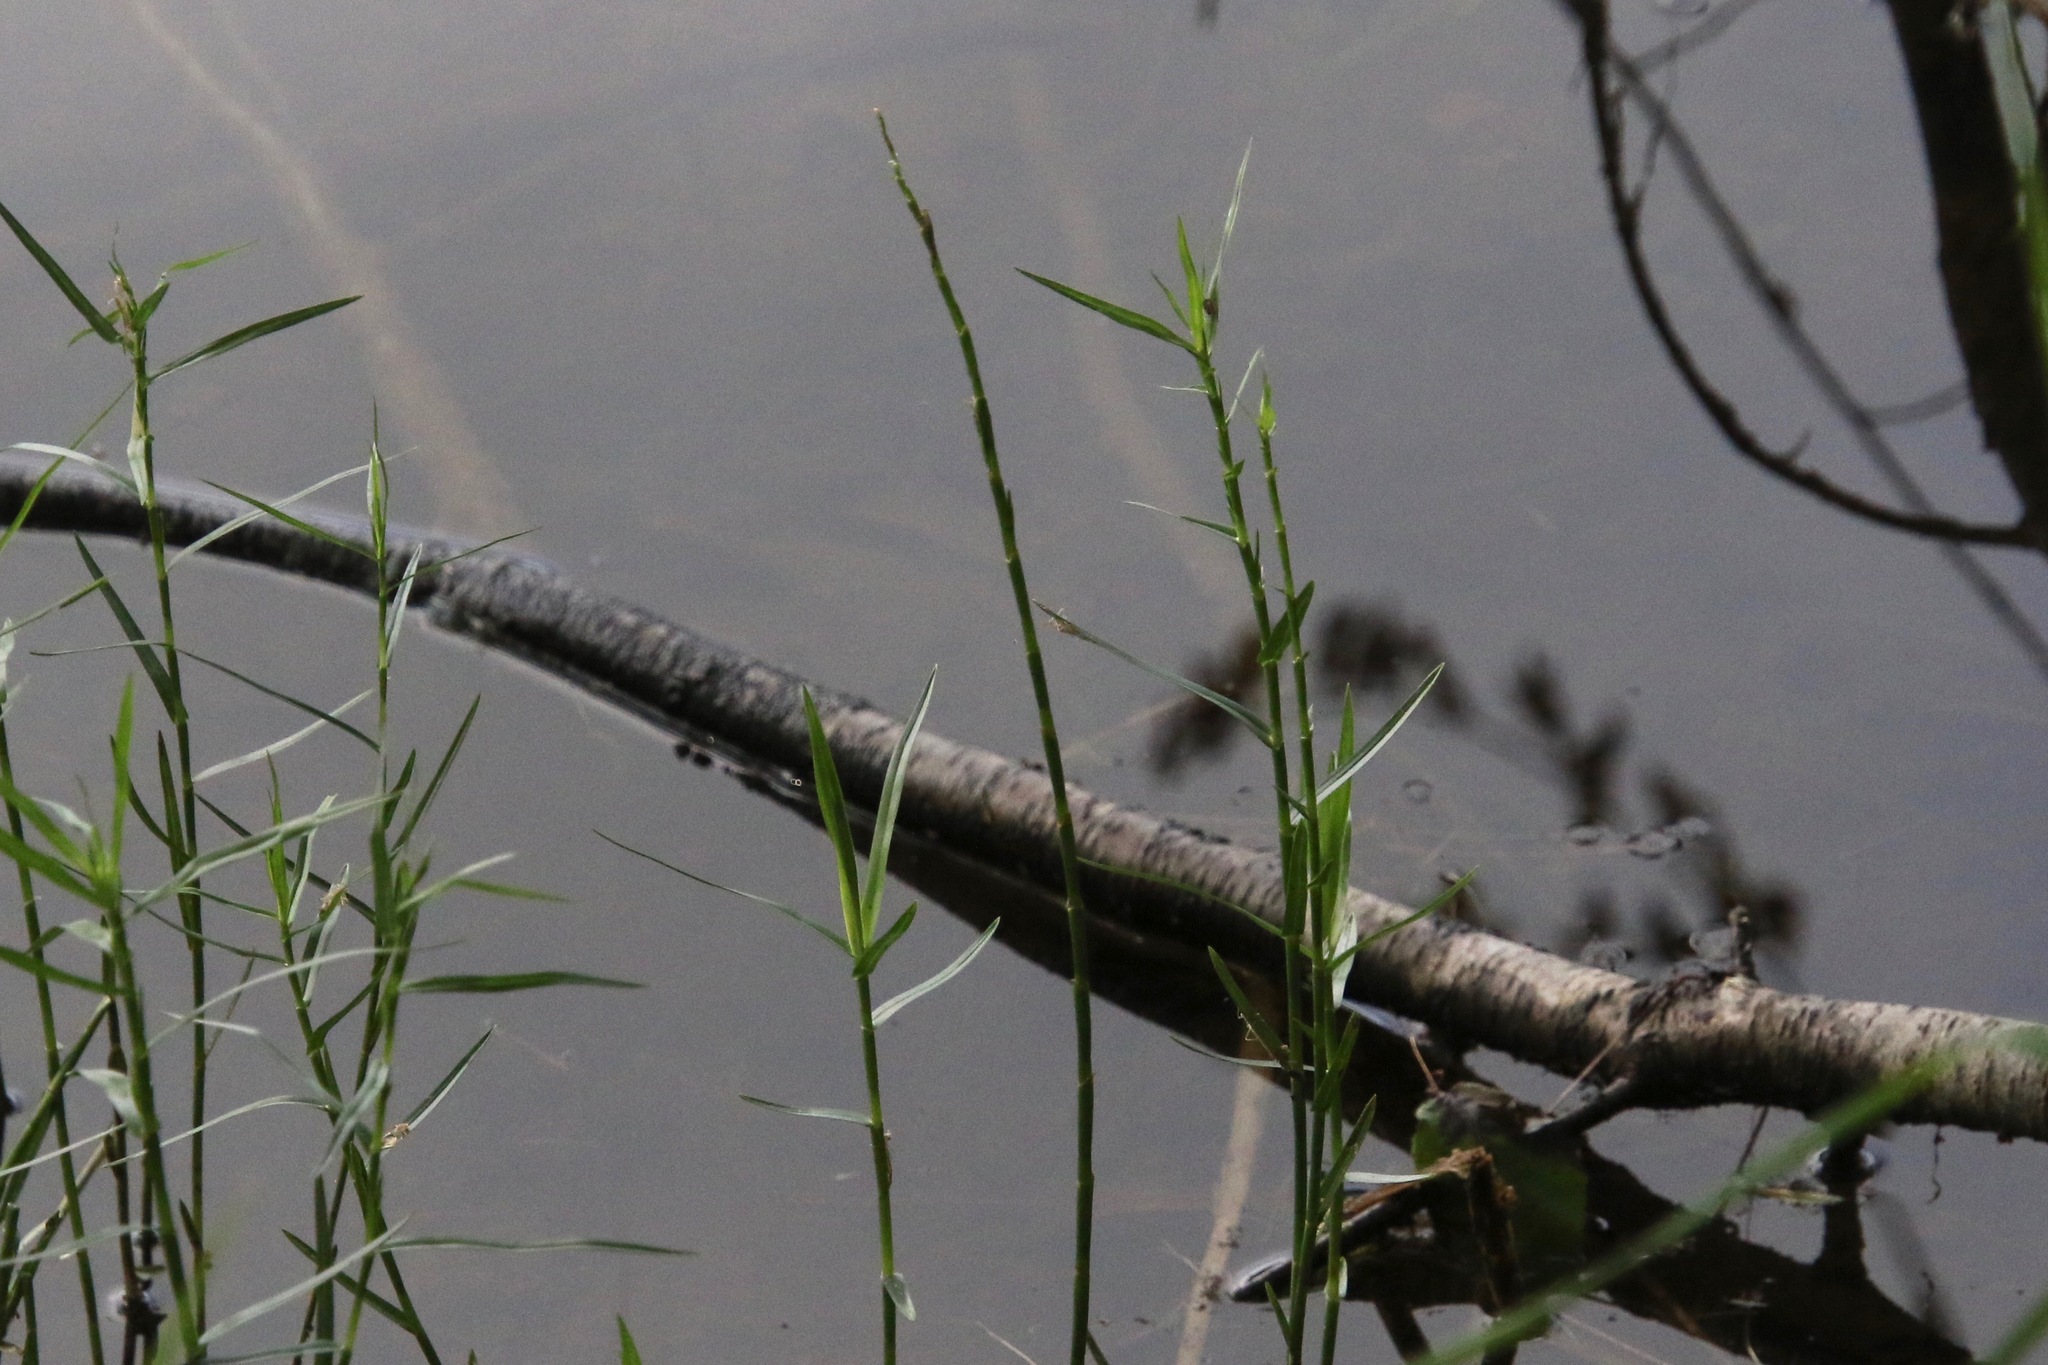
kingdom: Plantae
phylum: Tracheophyta
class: Liliopsida
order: Poales
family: Cyperaceae
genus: Dulichium
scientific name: Dulichium arundinaceum
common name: Three-way sedge
